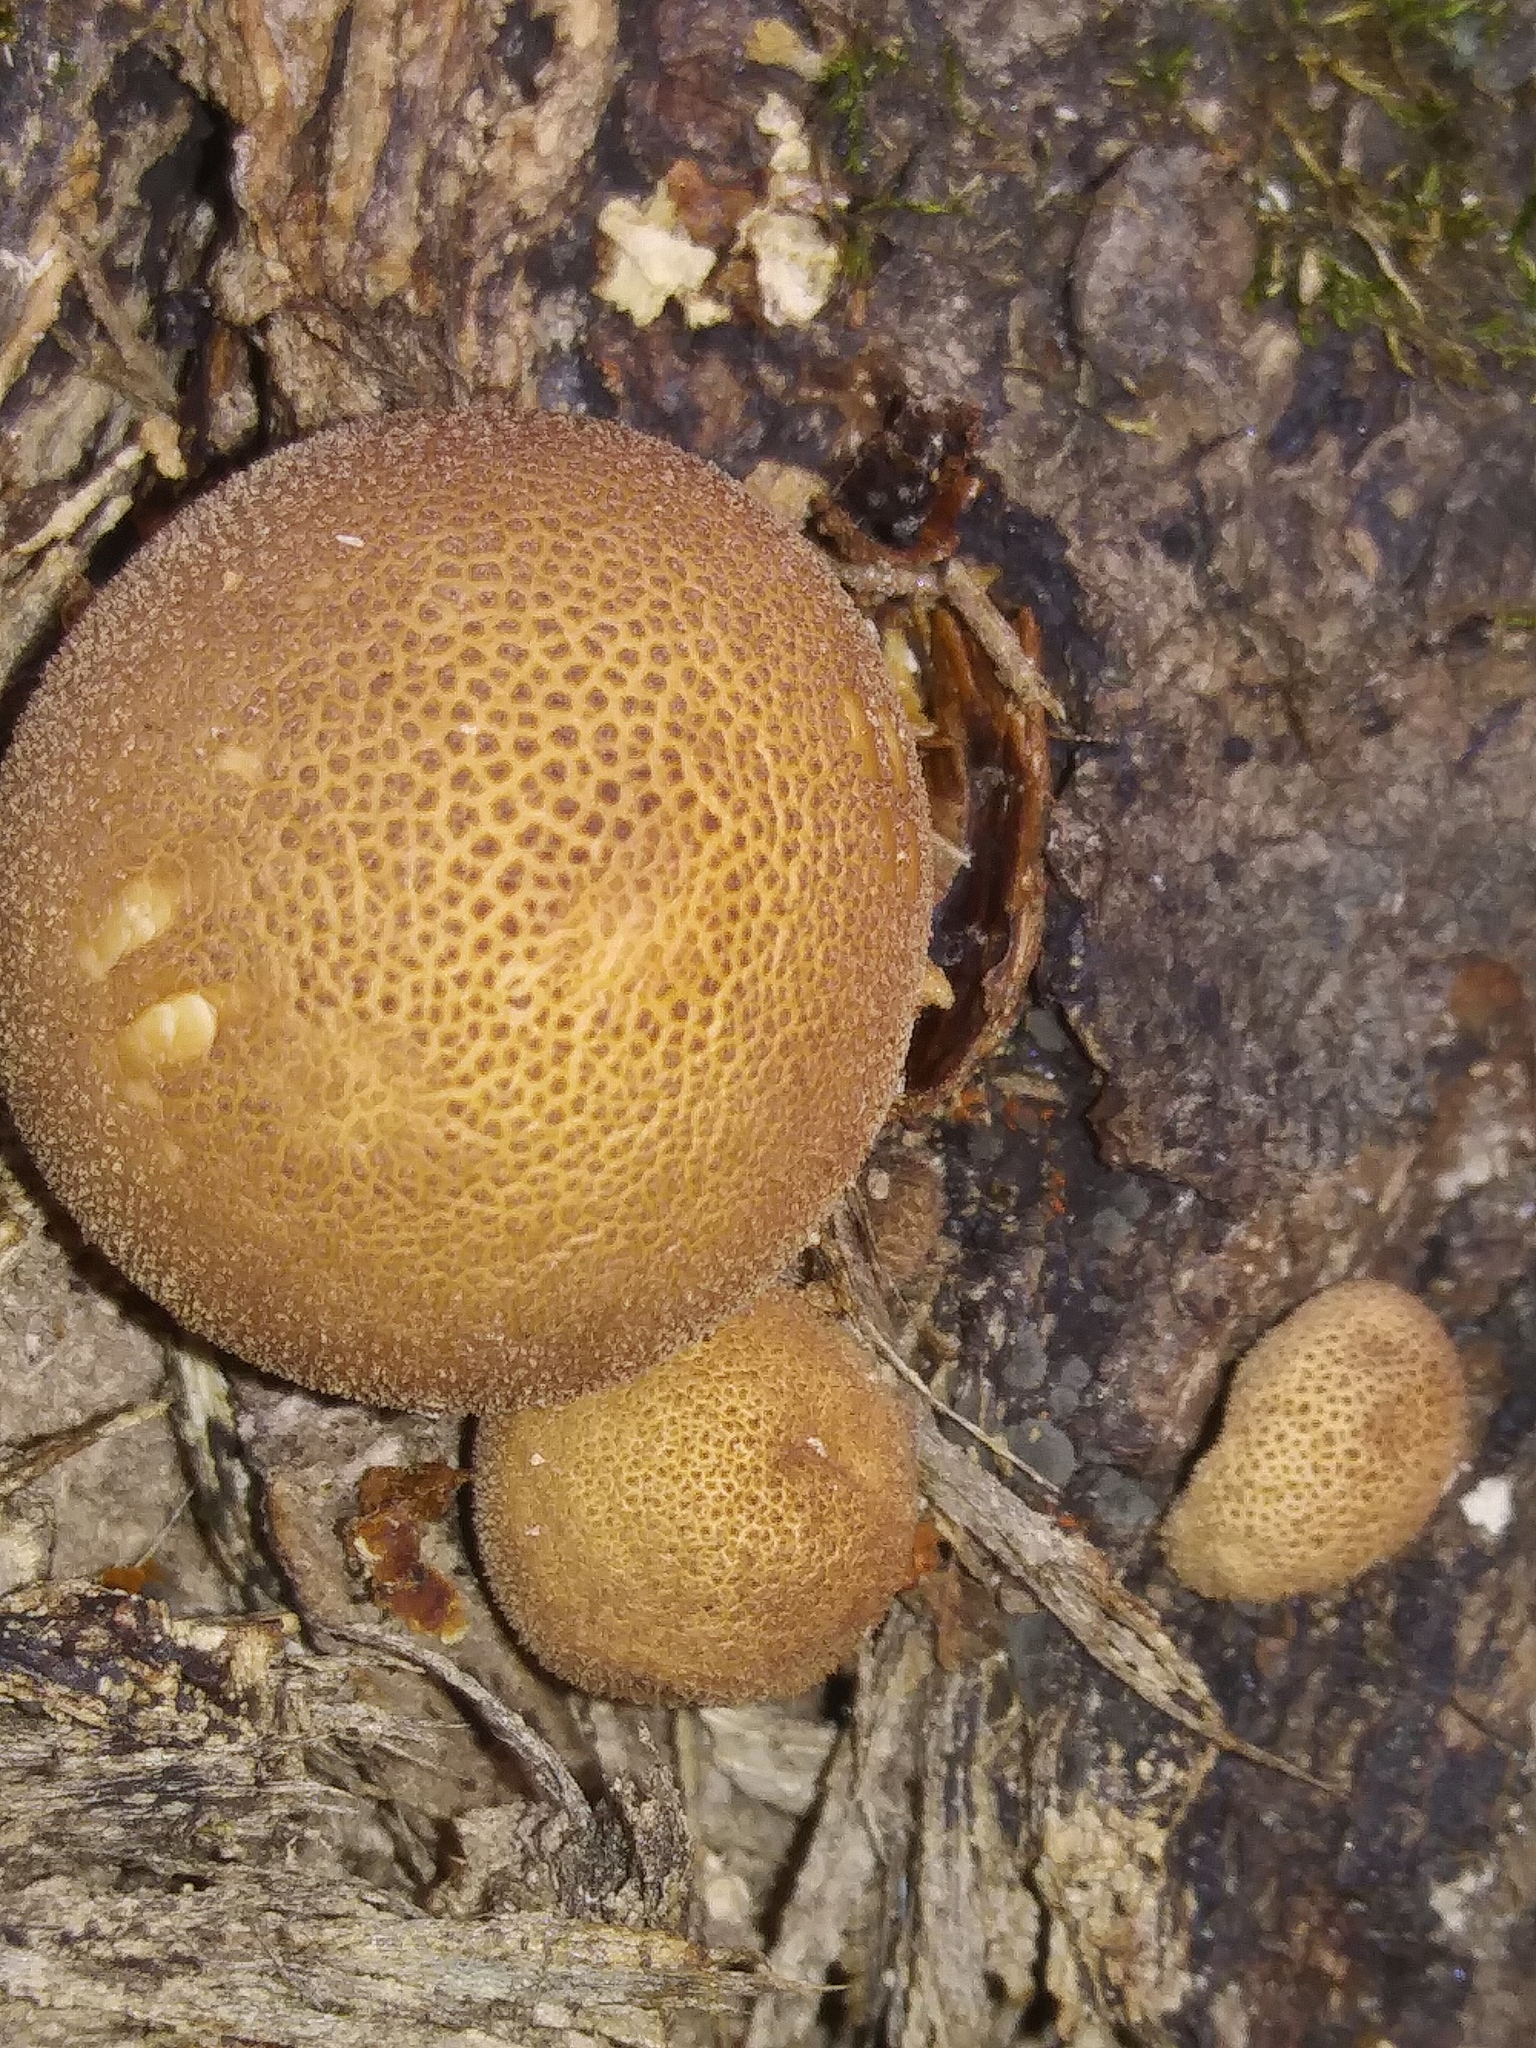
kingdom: Fungi
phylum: Basidiomycota
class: Agaricomycetes
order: Agaricales
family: Lycoperdaceae
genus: Apioperdon
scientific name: Apioperdon pyriforme
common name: Pear-shaped puffball
